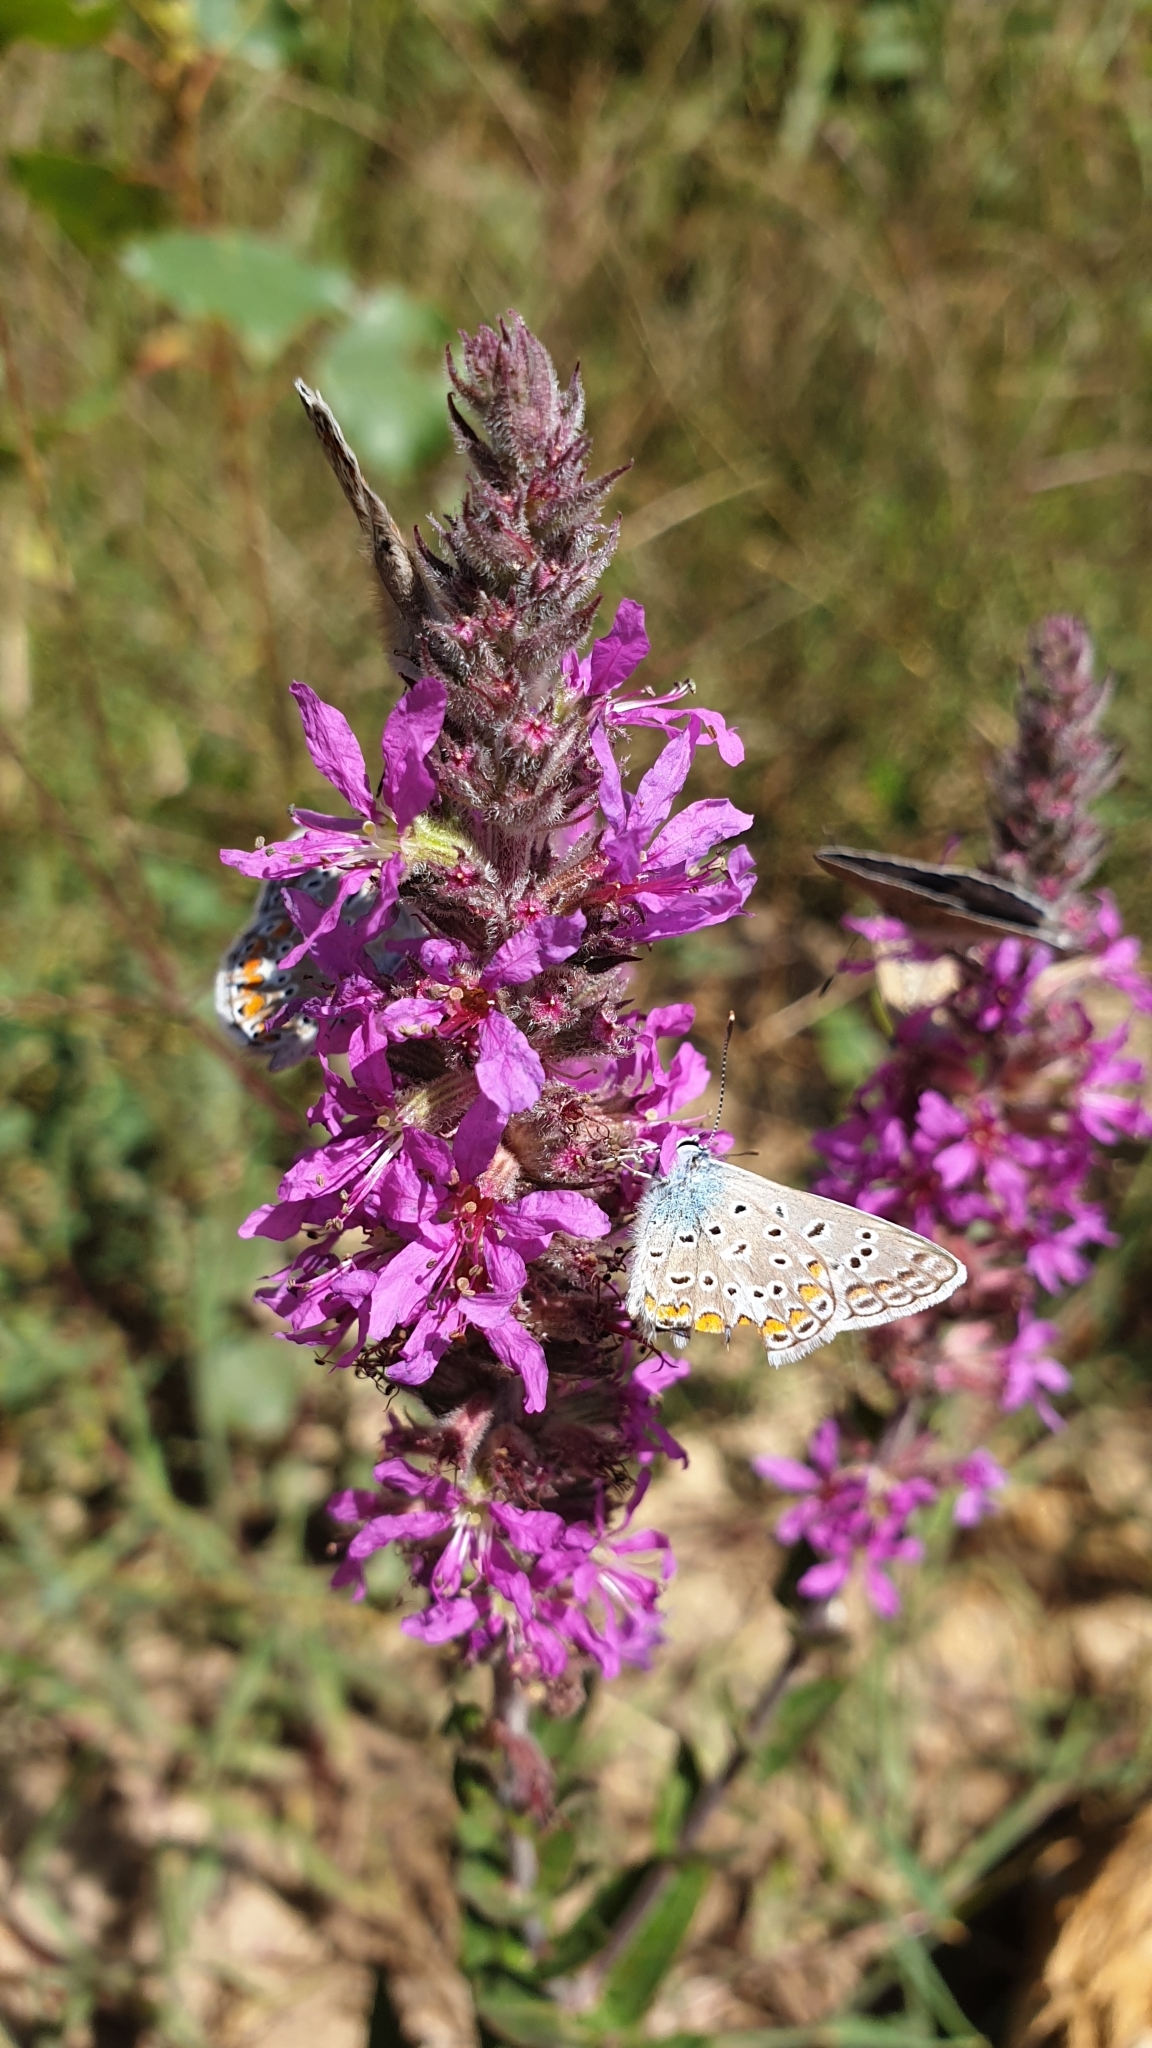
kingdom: Animalia
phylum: Arthropoda
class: Insecta
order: Lepidoptera
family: Lycaenidae
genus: Polyommatus
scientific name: Polyommatus icarus
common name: Common blue
